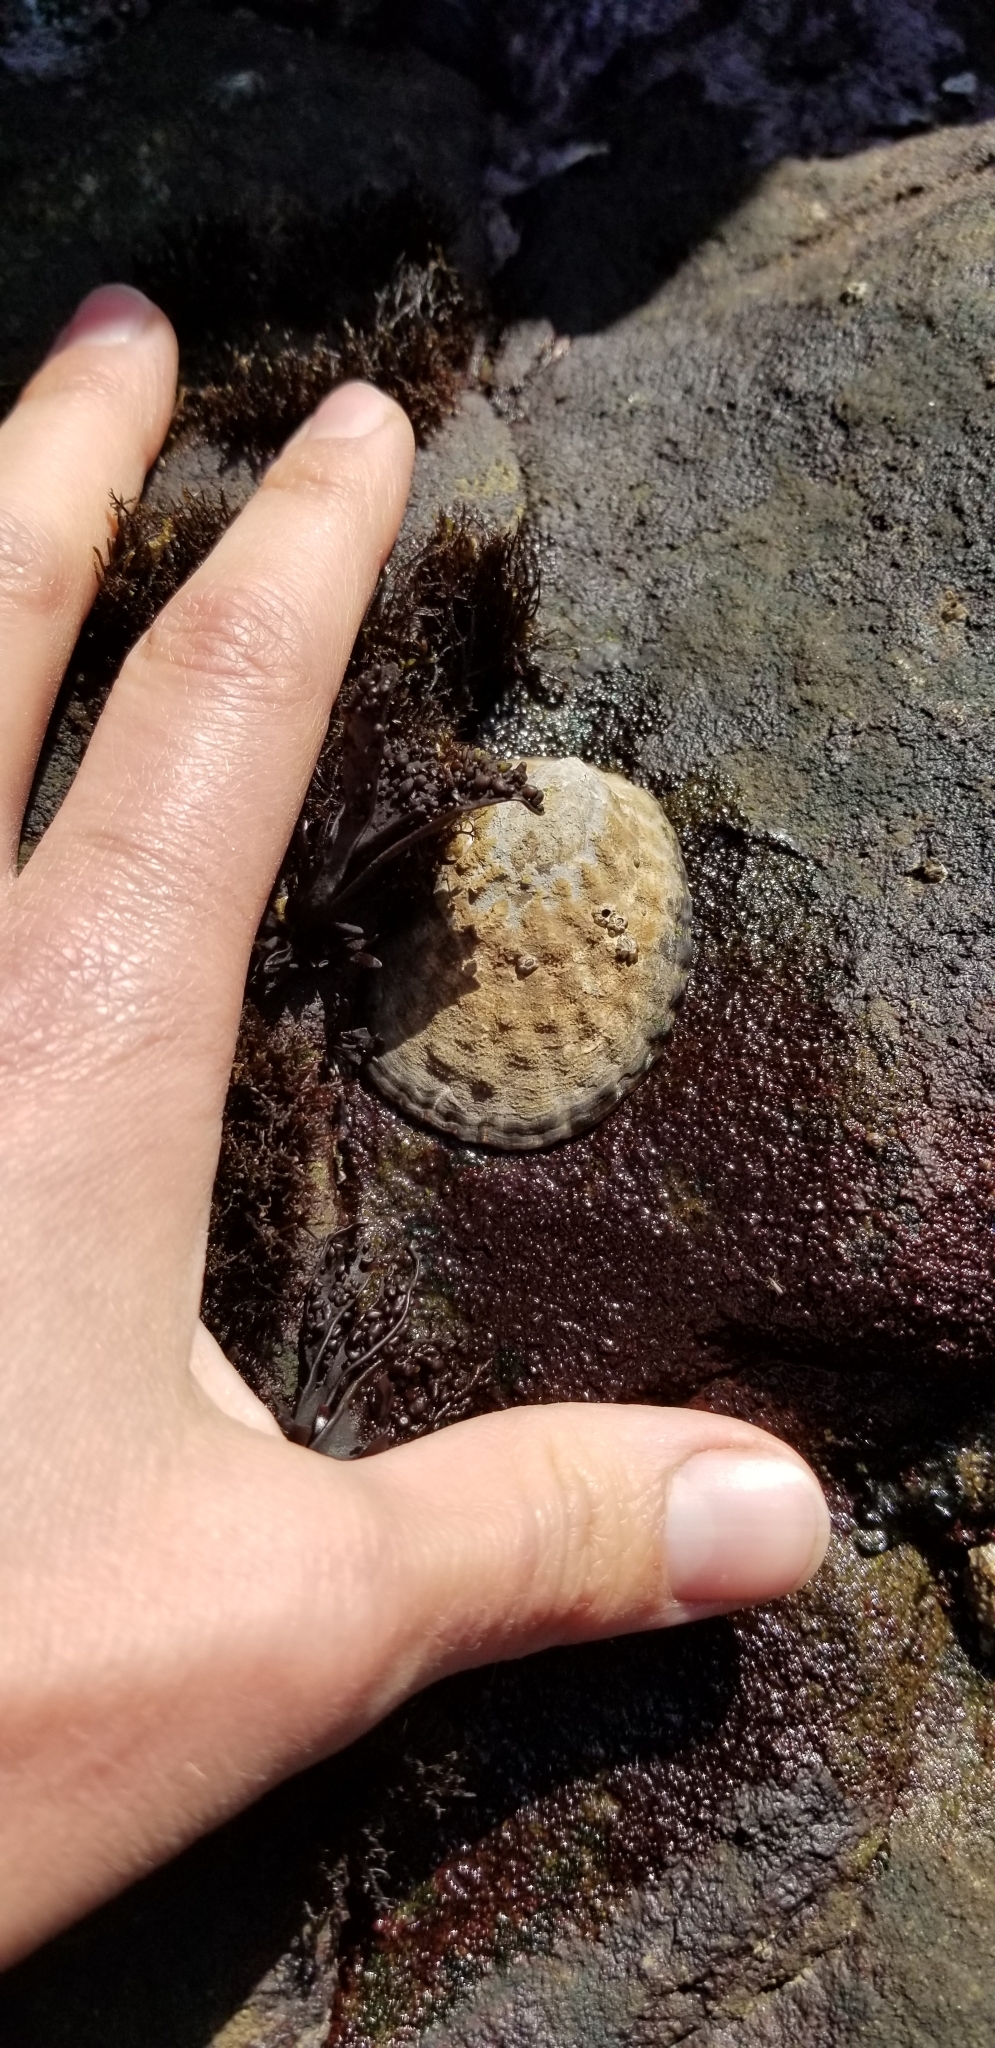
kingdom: Animalia
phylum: Mollusca
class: Gastropoda
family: Lottiidae
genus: Lottia
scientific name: Lottia gigantea
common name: Owl limpet
